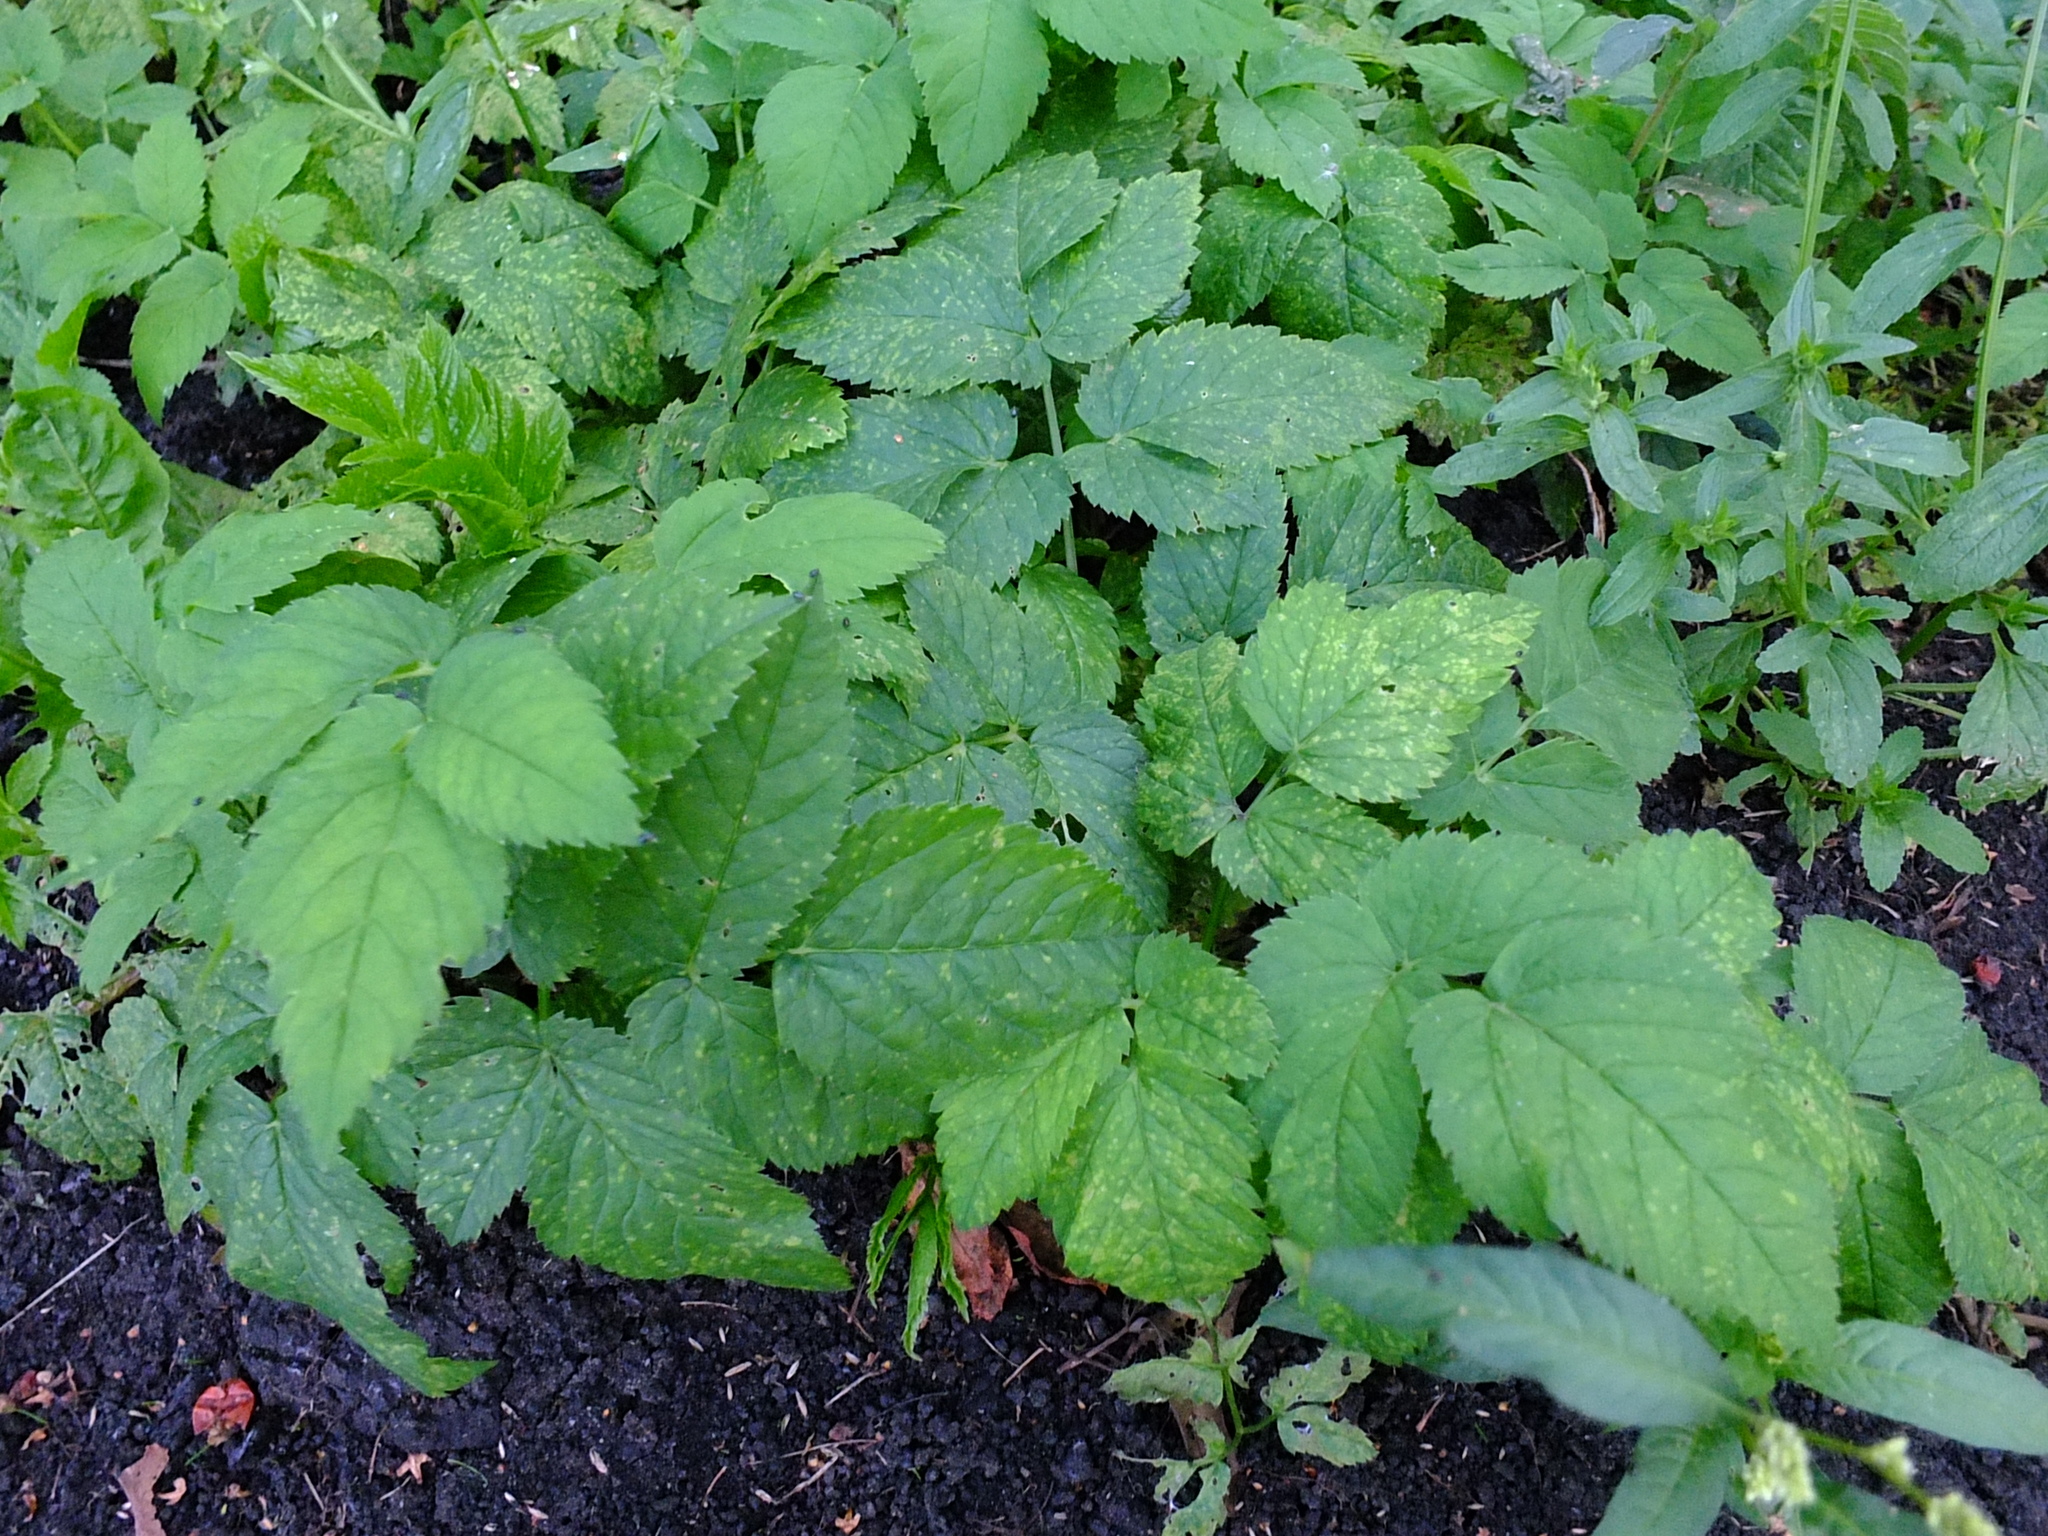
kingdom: Plantae
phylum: Tracheophyta
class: Magnoliopsida
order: Apiales
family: Apiaceae
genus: Aegopodium
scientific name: Aegopodium podagraria
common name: Ground-elder
